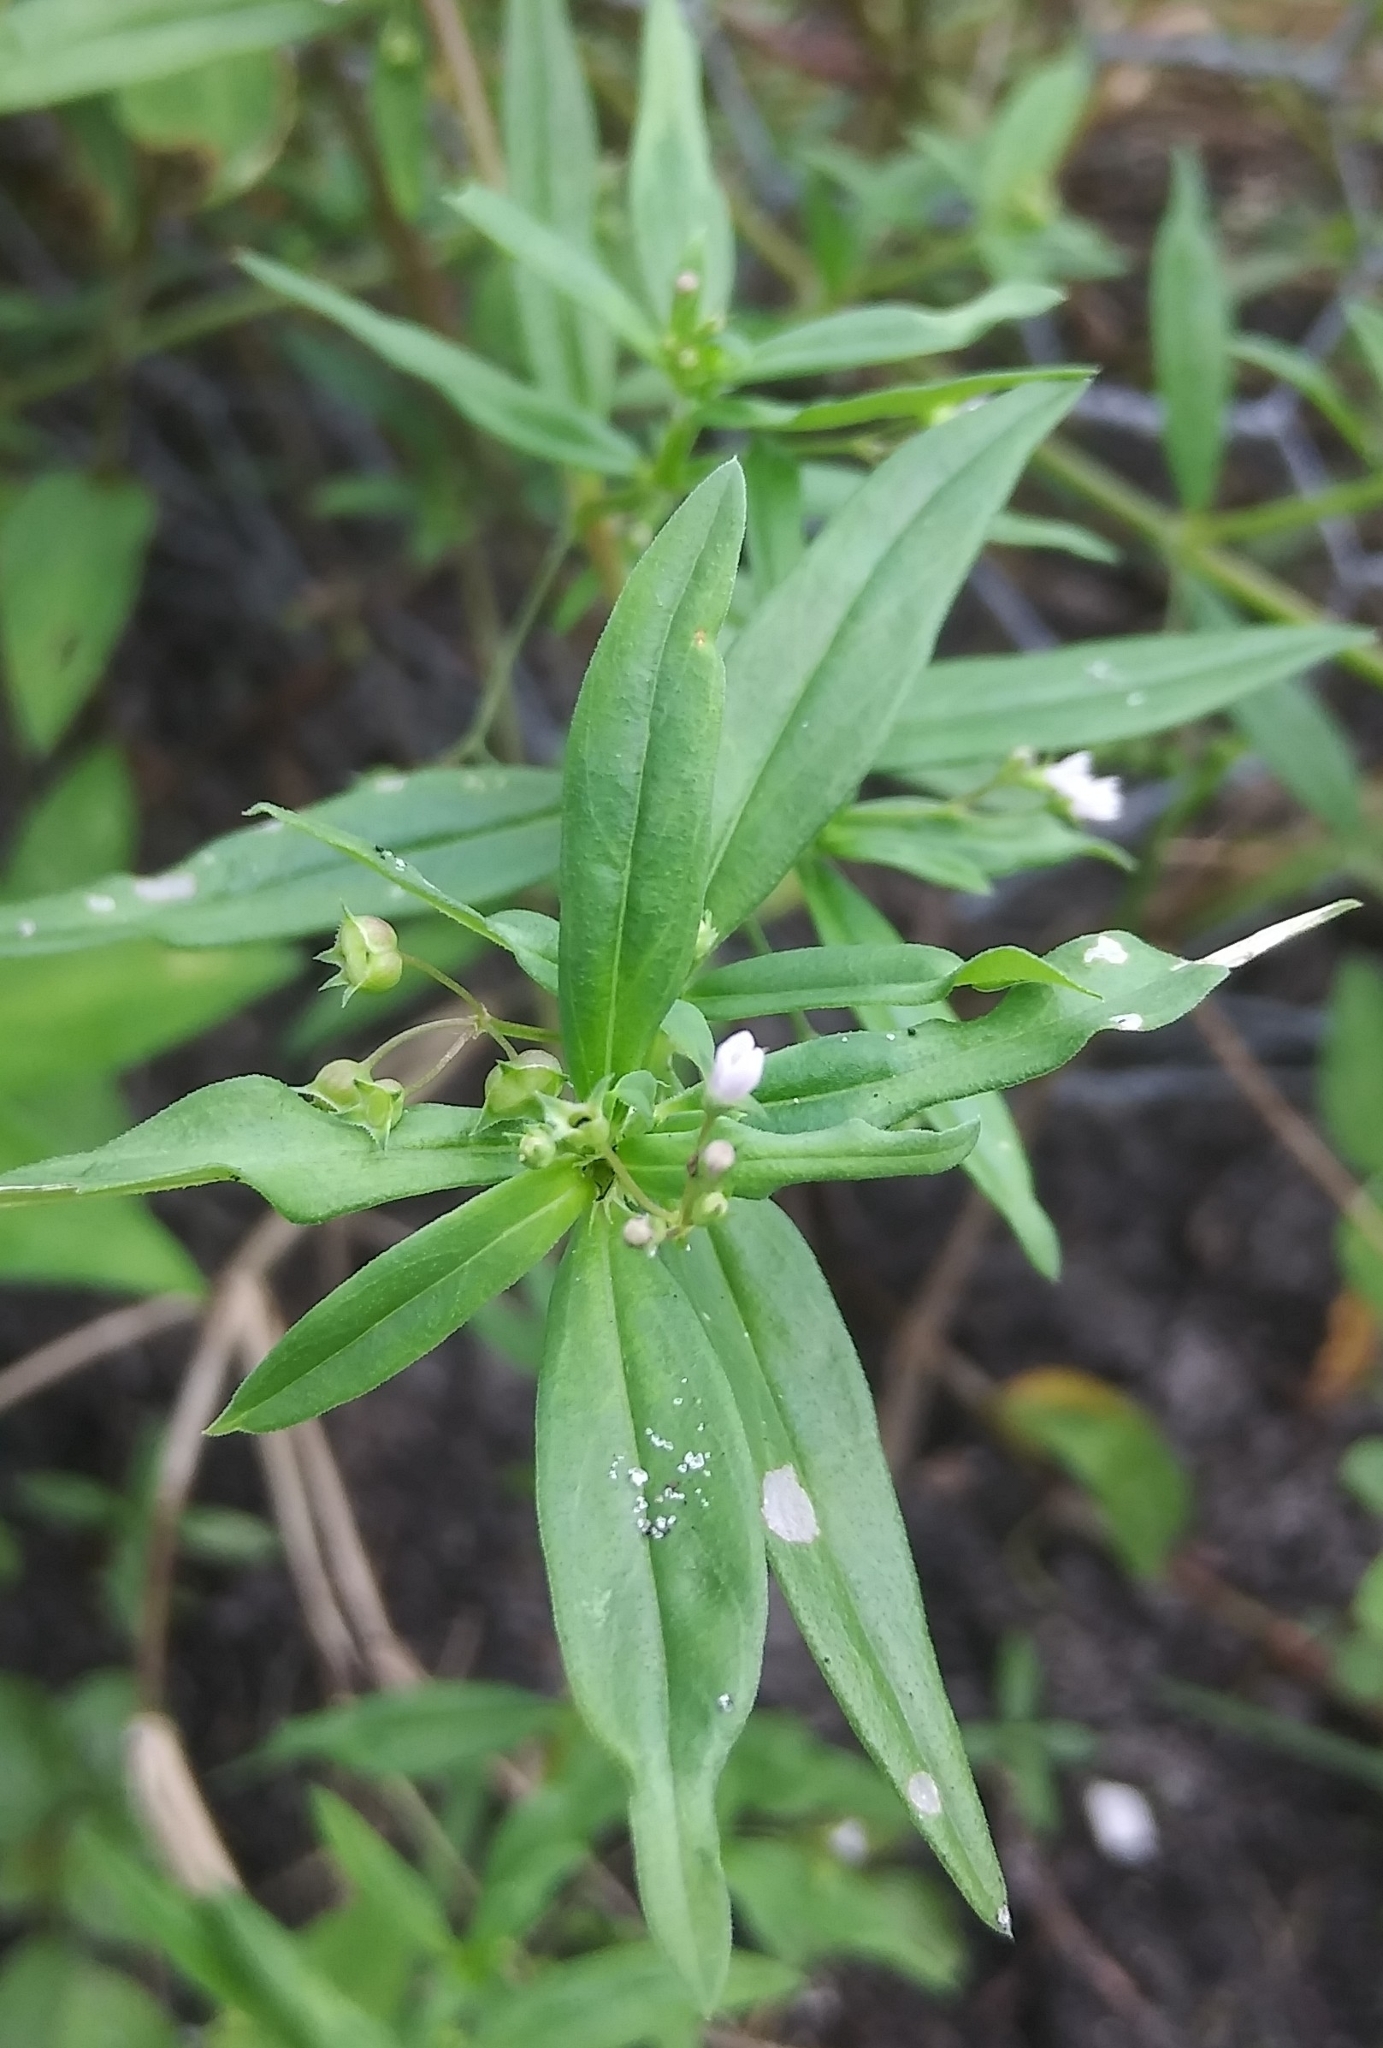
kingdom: Plantae
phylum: Tracheophyta
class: Magnoliopsida
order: Gentianales
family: Rubiaceae
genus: Oldenlandia
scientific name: Oldenlandia corymbosa
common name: Flat-top mille graines
